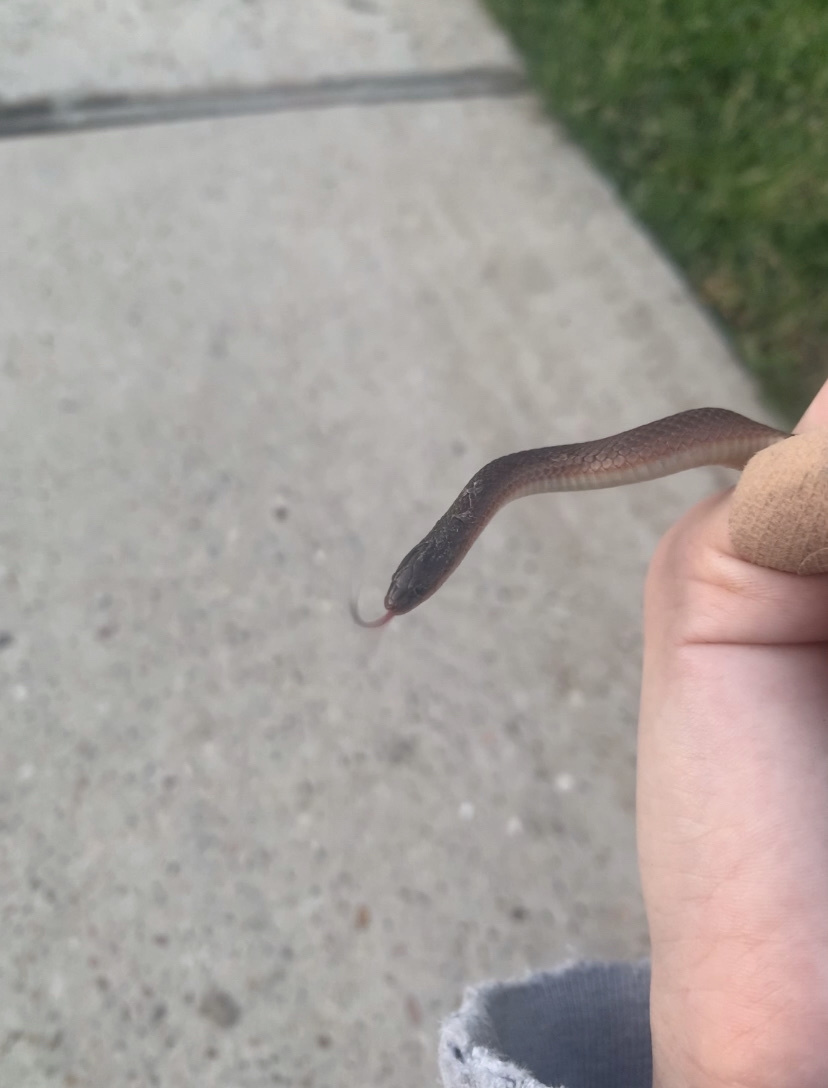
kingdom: Animalia
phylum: Chordata
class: Squamata
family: Colubridae
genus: Haldea
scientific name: Haldea striatula
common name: Rough earth snake
